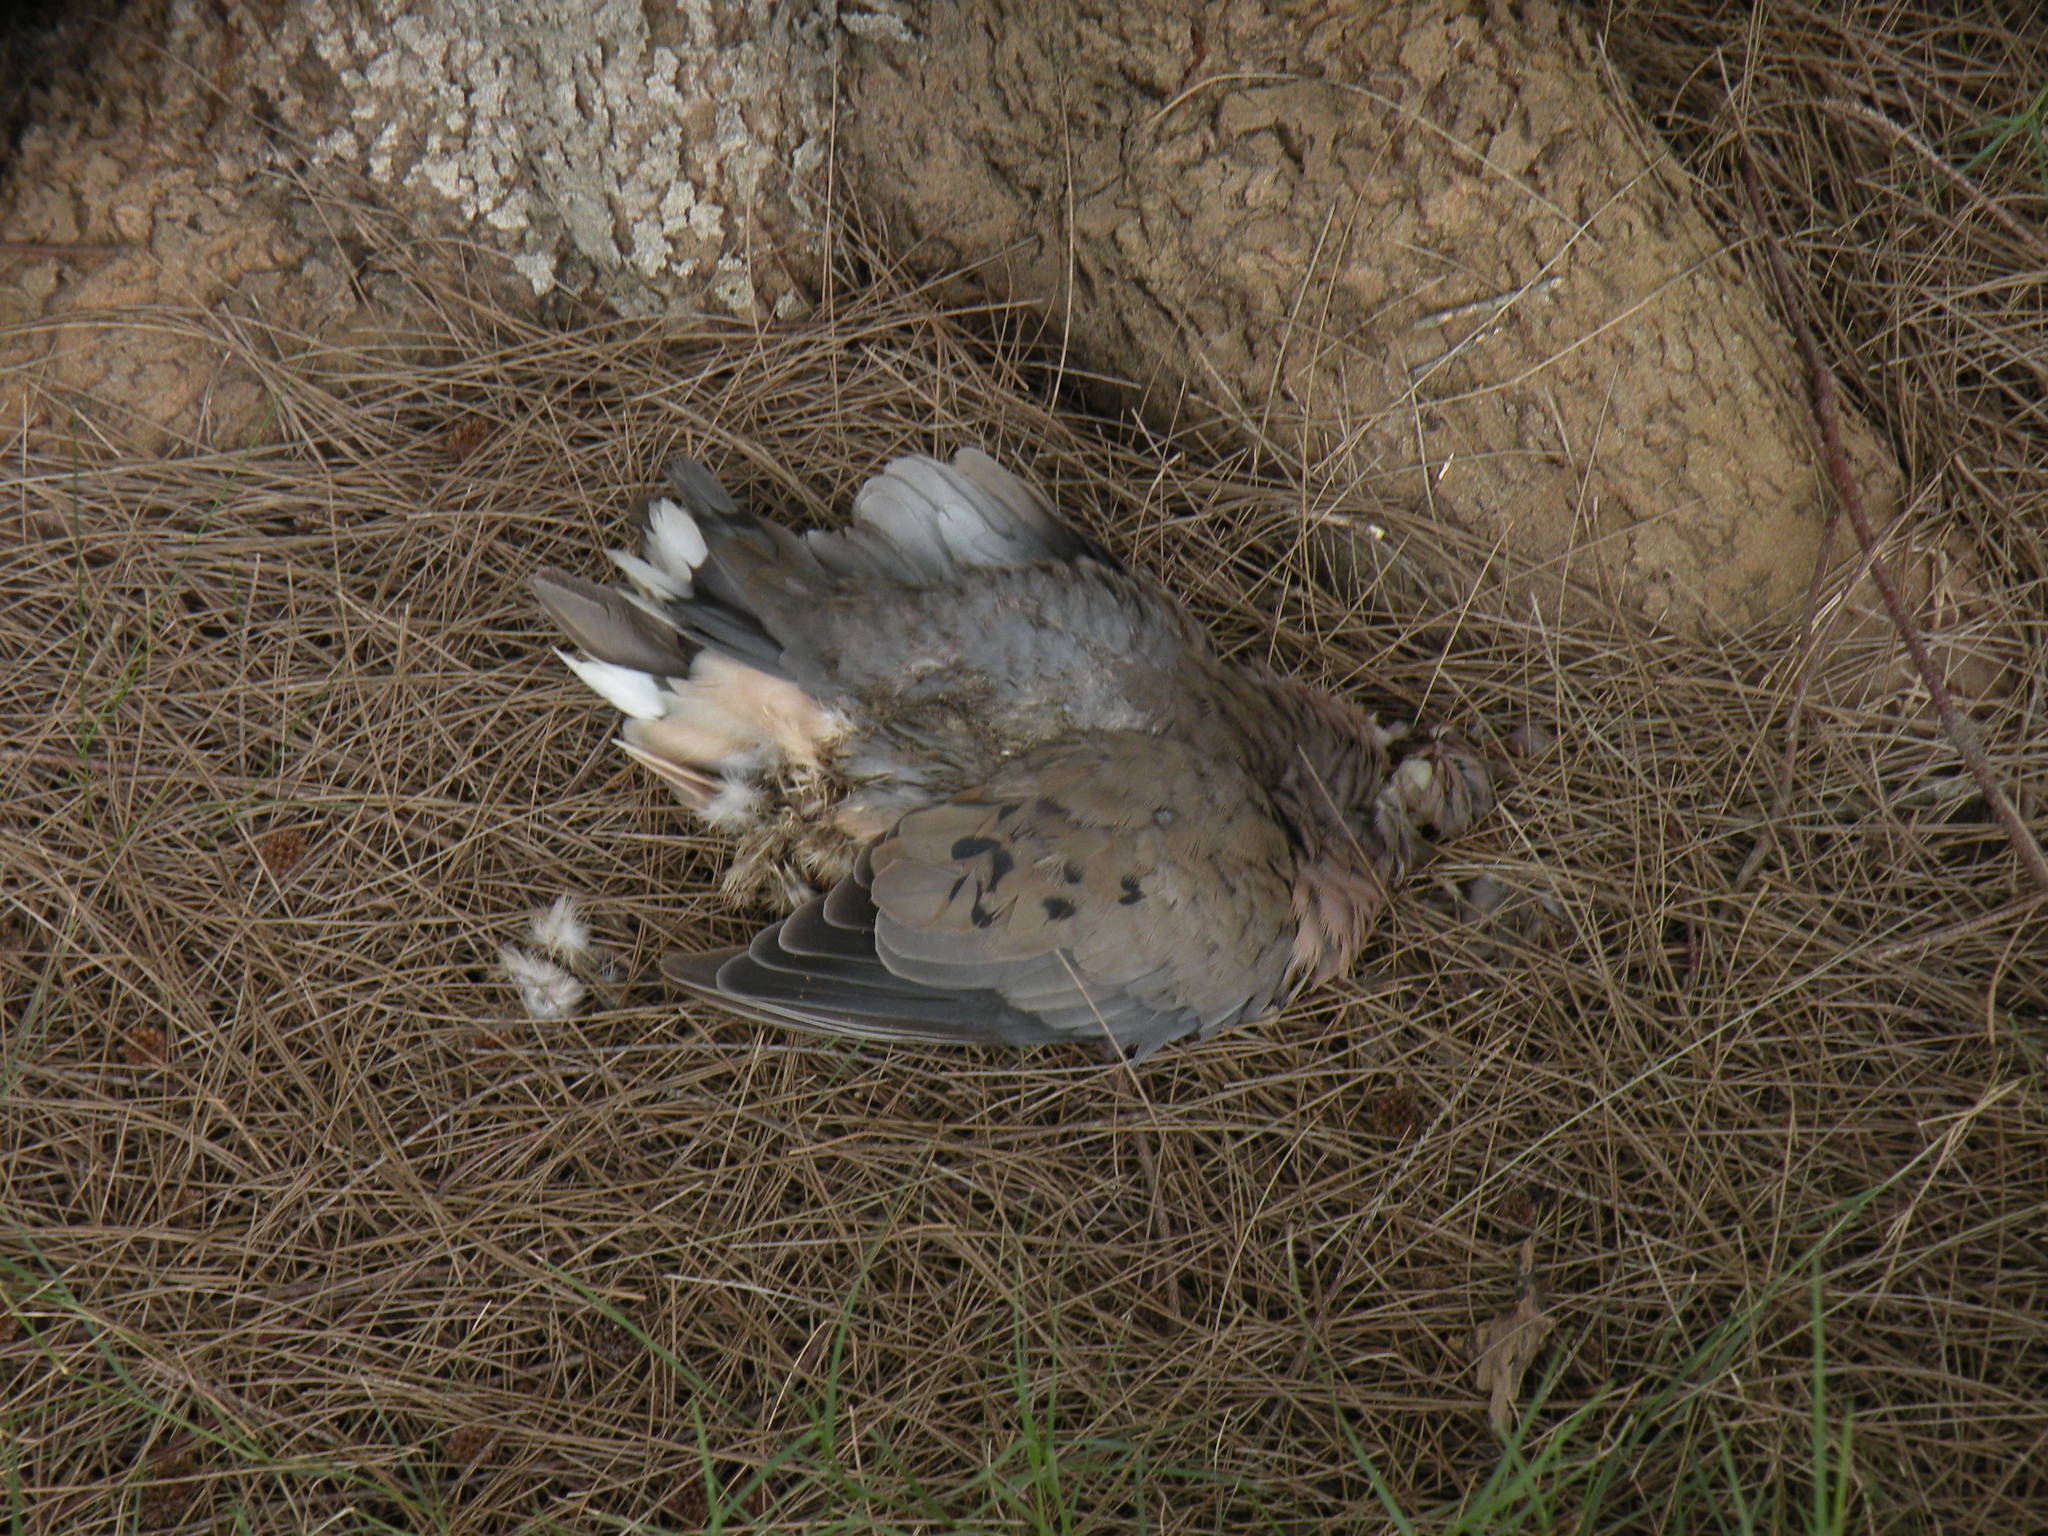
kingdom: Animalia
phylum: Chordata
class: Aves
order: Columbiformes
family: Columbidae
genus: Zenaida
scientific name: Zenaida auriculata
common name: Eared dove
